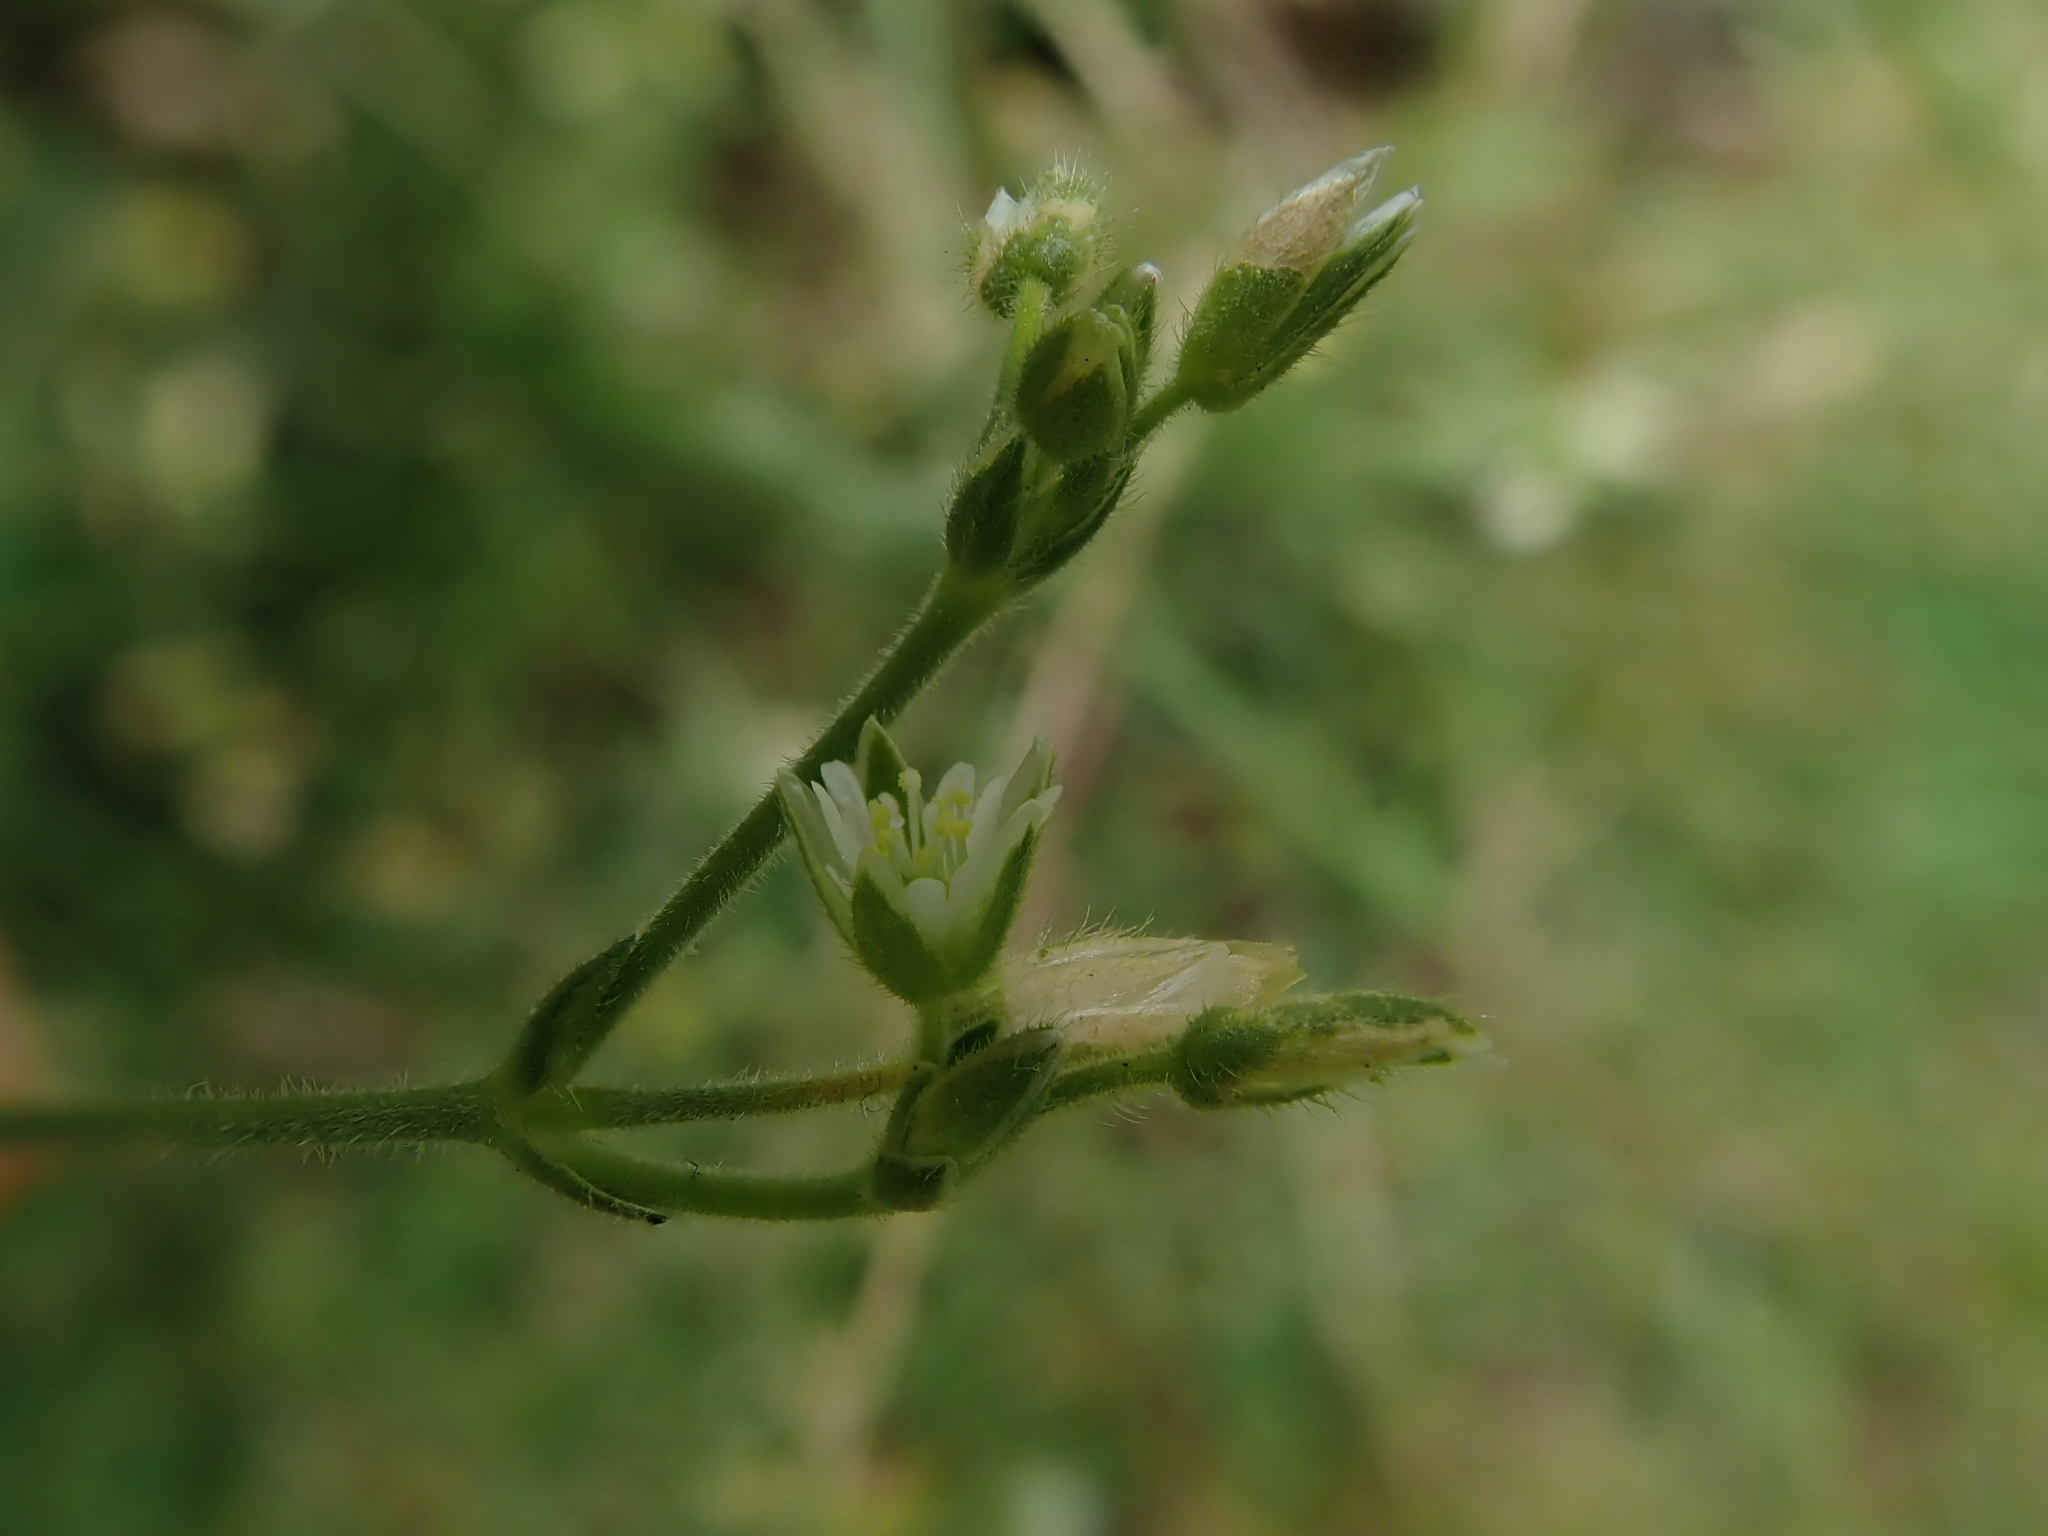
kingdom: Plantae
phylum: Tracheophyta
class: Magnoliopsida
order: Caryophyllales
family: Caryophyllaceae
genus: Cerastium
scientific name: Cerastium fontanum
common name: Common mouse-ear
